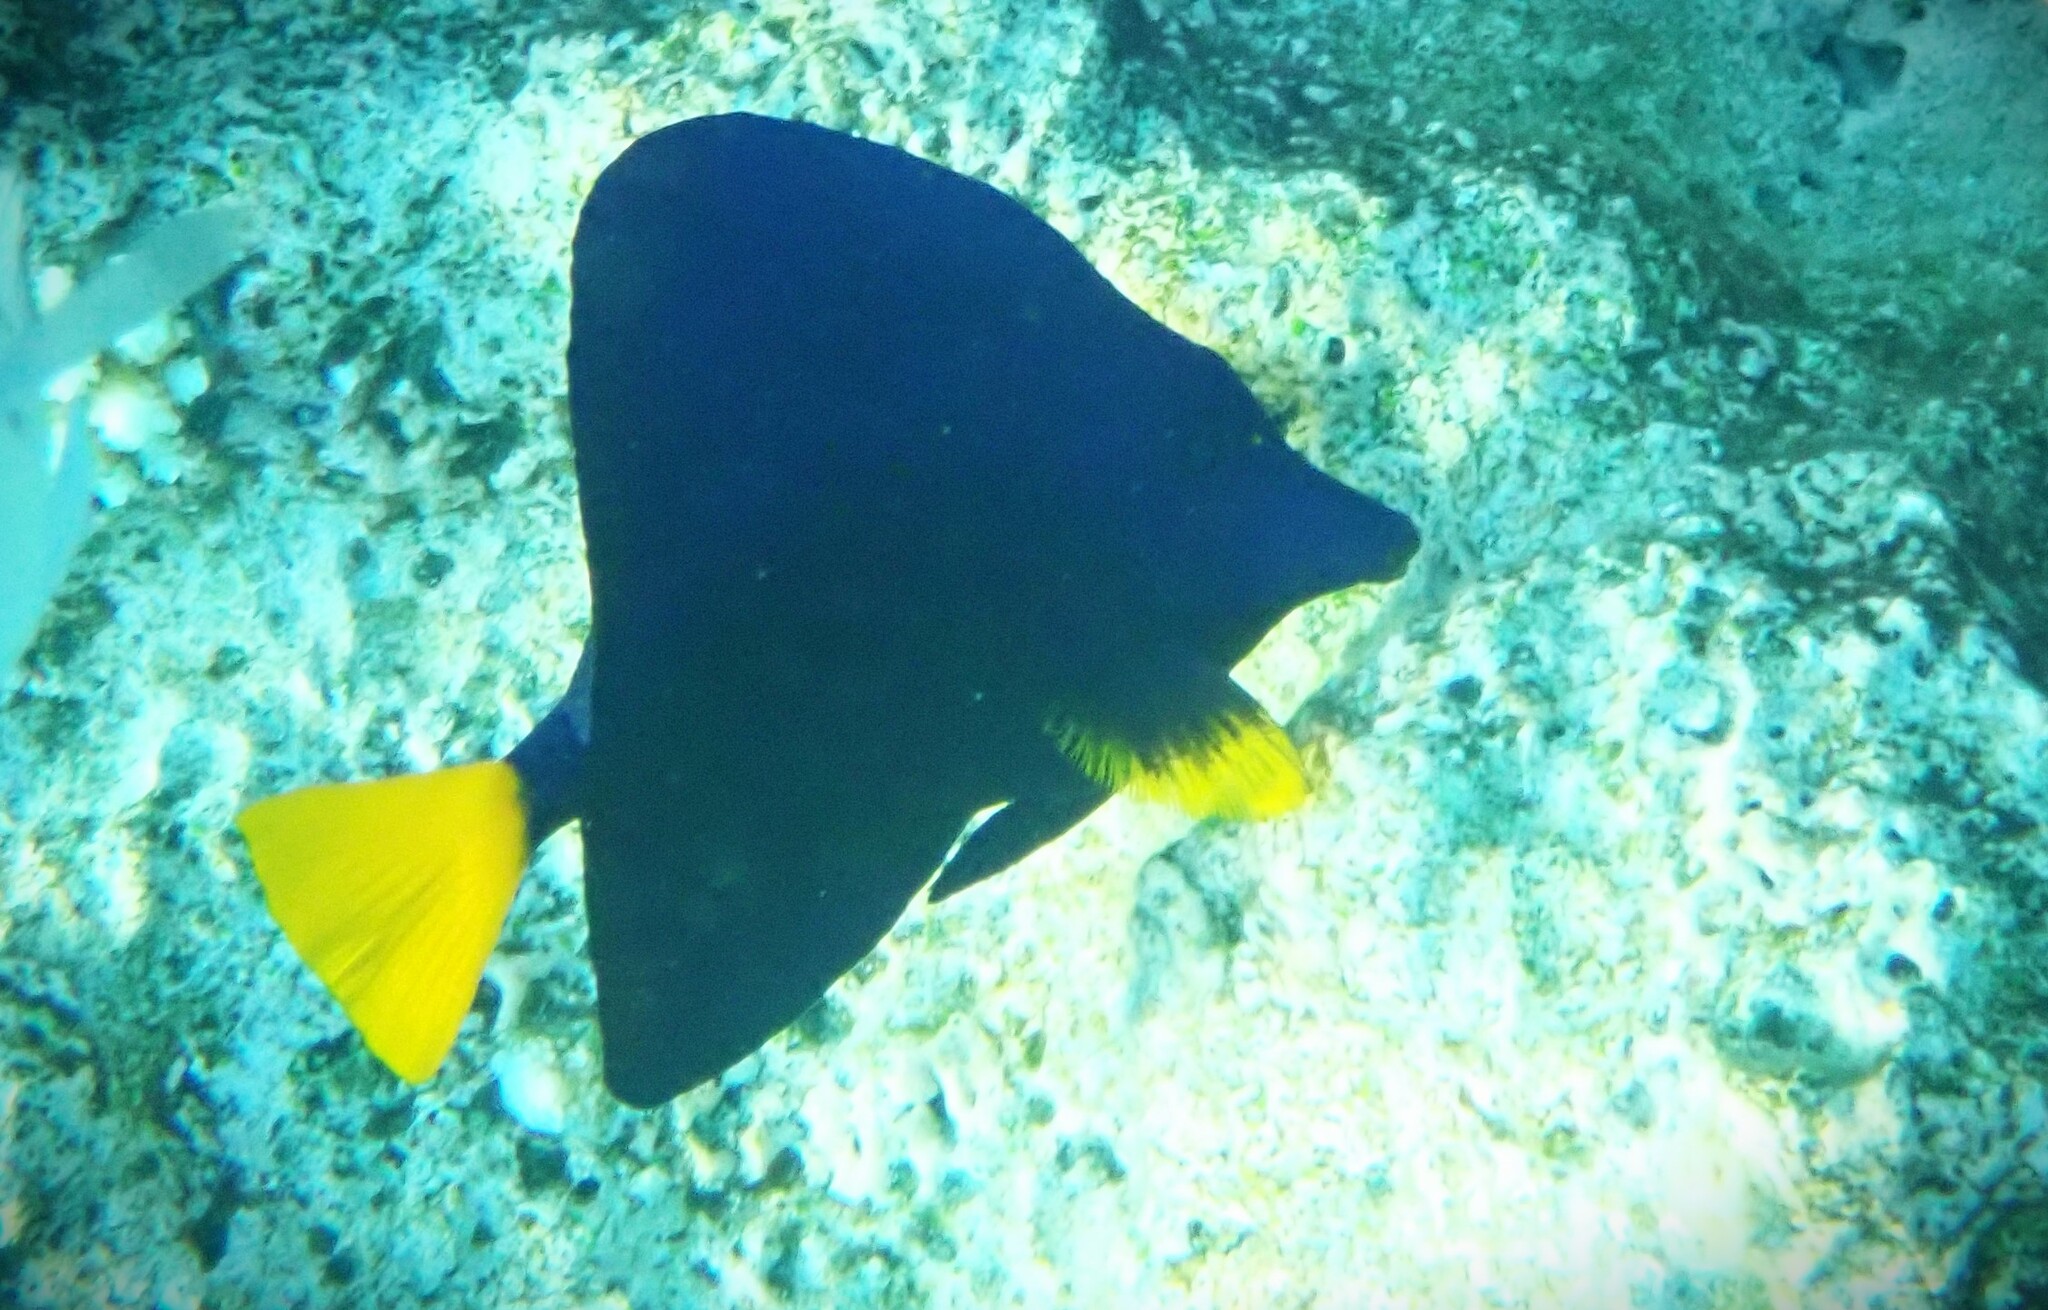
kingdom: Animalia
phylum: Chordata
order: Perciformes
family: Acanthuridae
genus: Zebrasoma
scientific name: Zebrasoma xanthurum
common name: Purple tang
